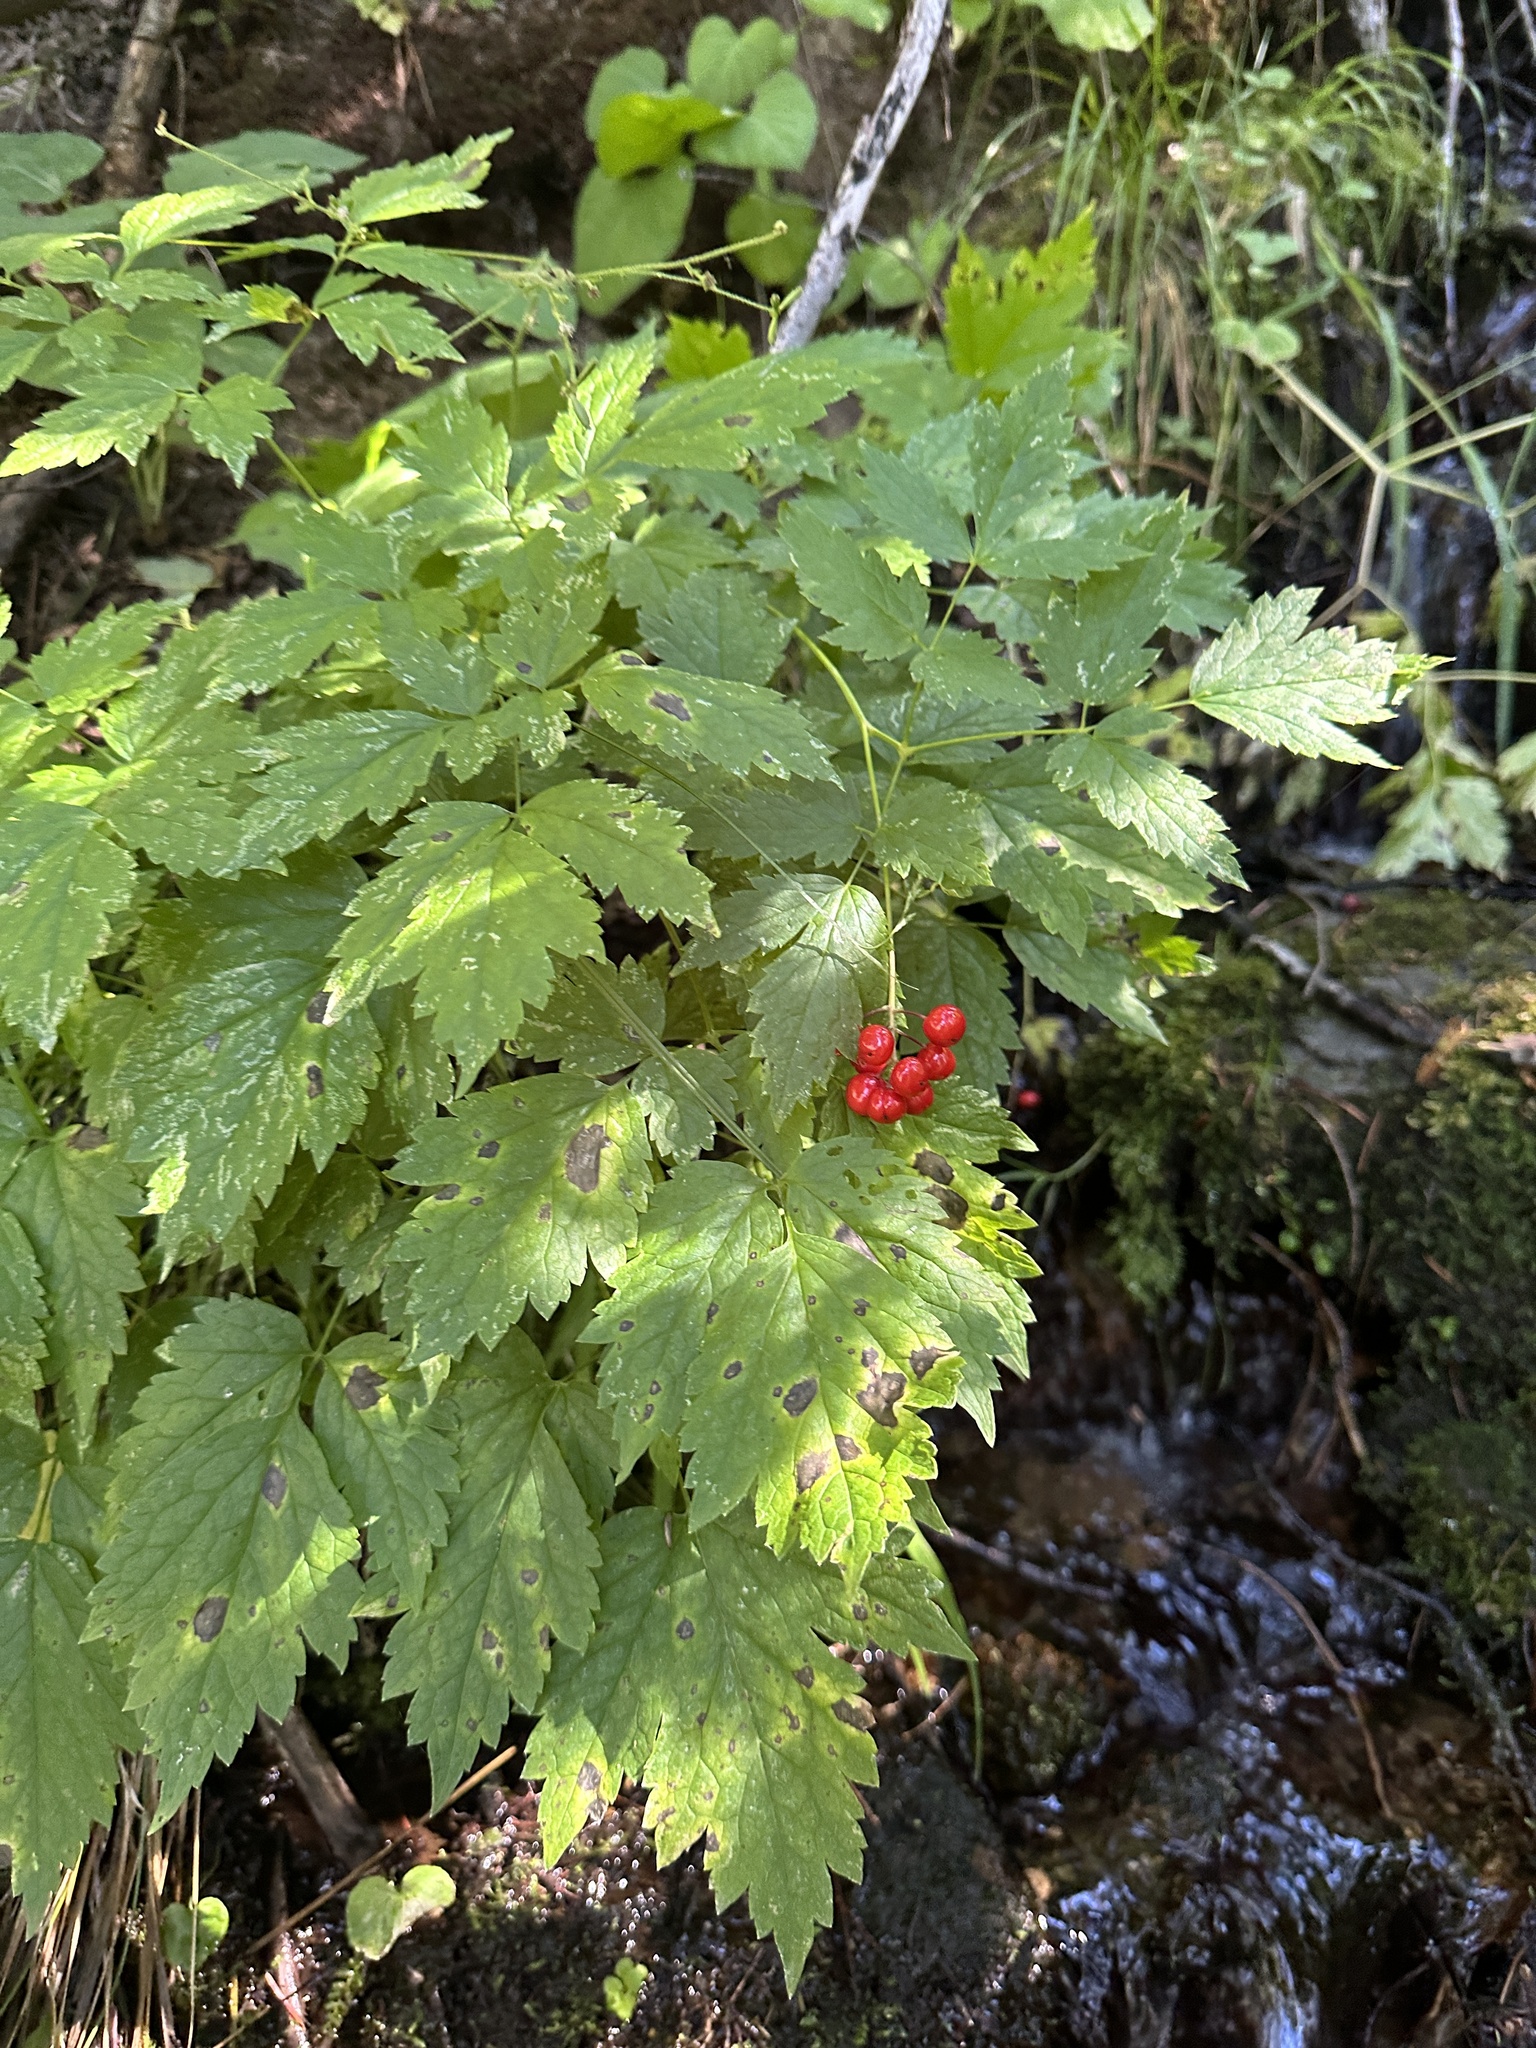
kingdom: Plantae
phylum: Tracheophyta
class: Magnoliopsida
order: Ranunculales
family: Ranunculaceae
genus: Actaea
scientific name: Actaea rubra
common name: Red baneberry
